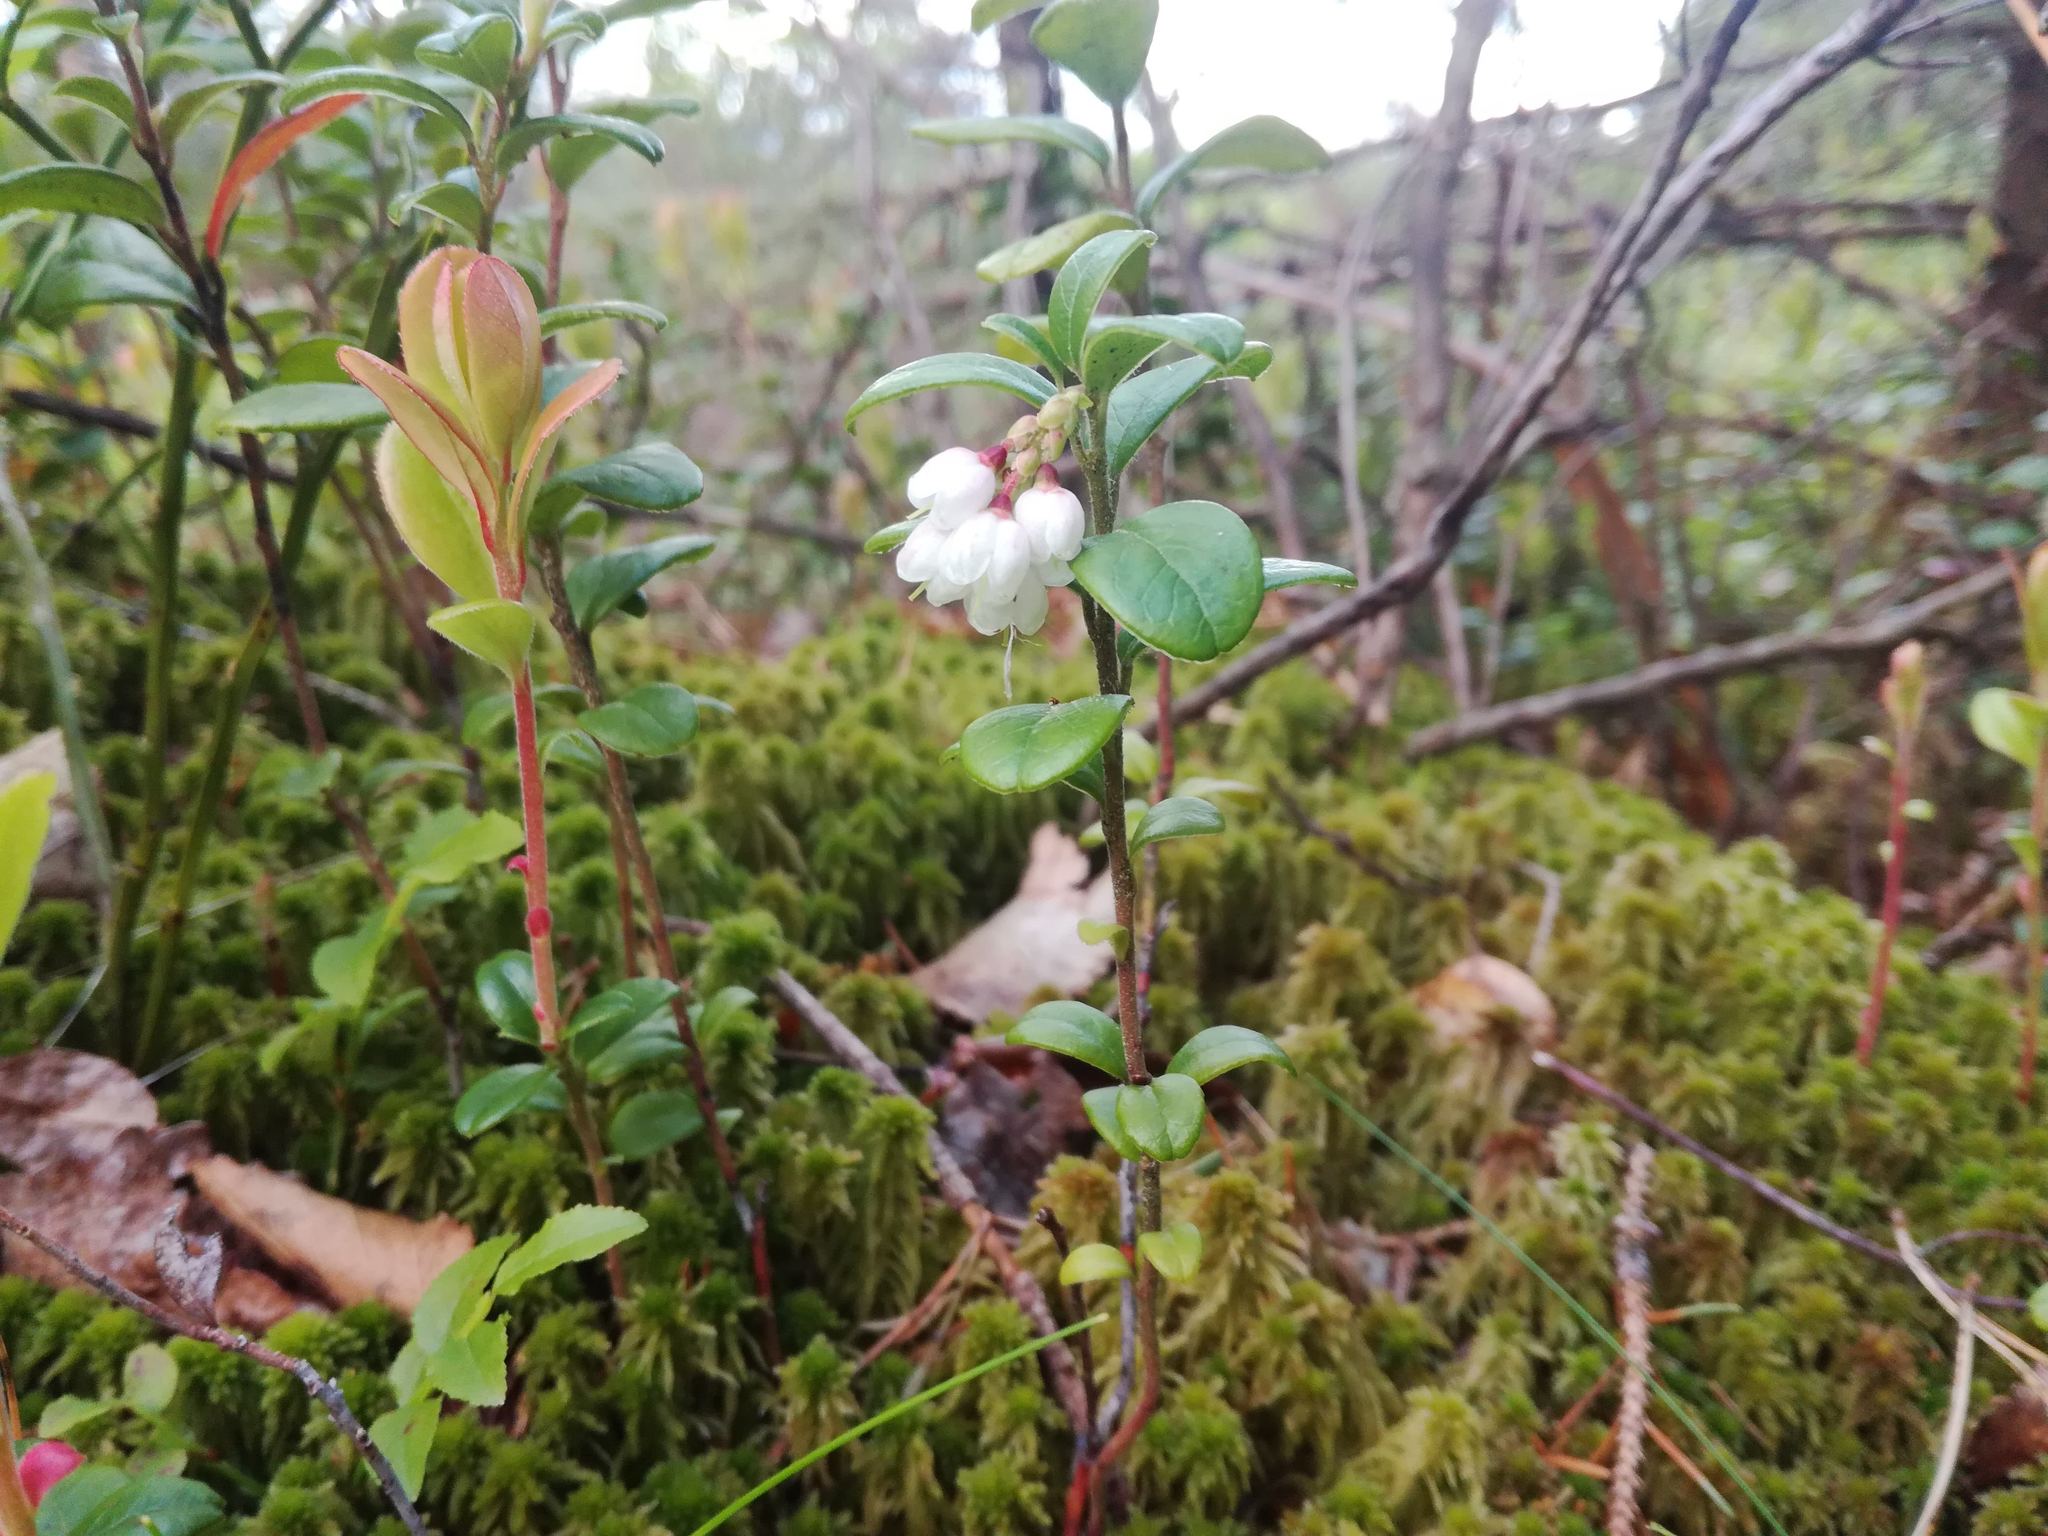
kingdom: Plantae
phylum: Tracheophyta
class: Magnoliopsida
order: Ericales
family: Ericaceae
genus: Vaccinium
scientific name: Vaccinium vitis-idaea
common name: Cowberry
